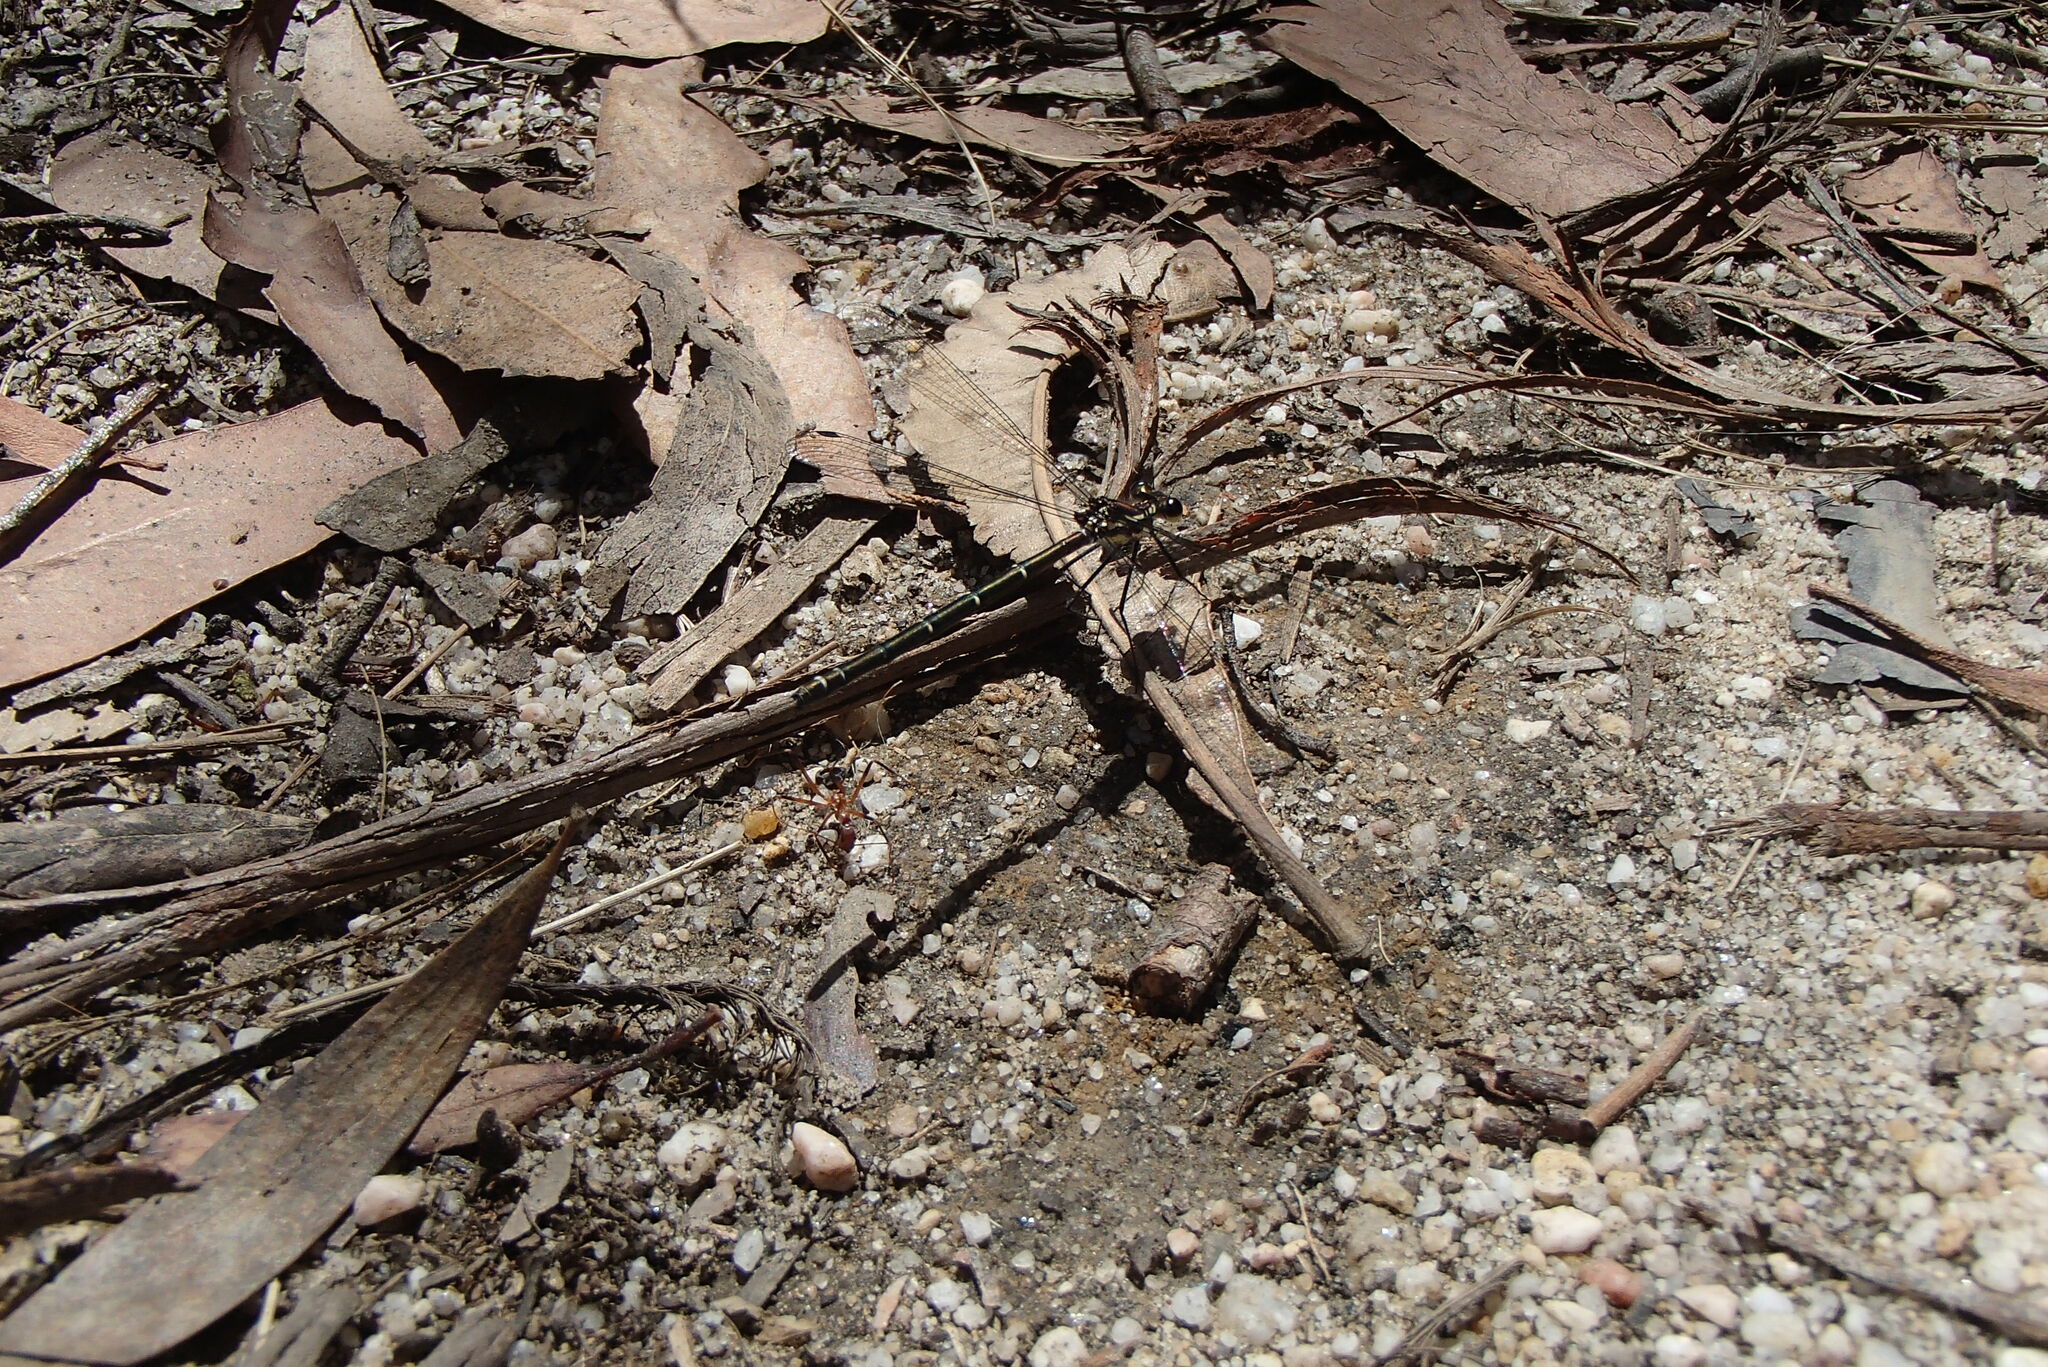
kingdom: Animalia
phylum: Arthropoda
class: Insecta
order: Odonata
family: Argiolestidae
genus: Austroargiolestes
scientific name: Austroargiolestes isabellae
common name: Sydney flatwing
